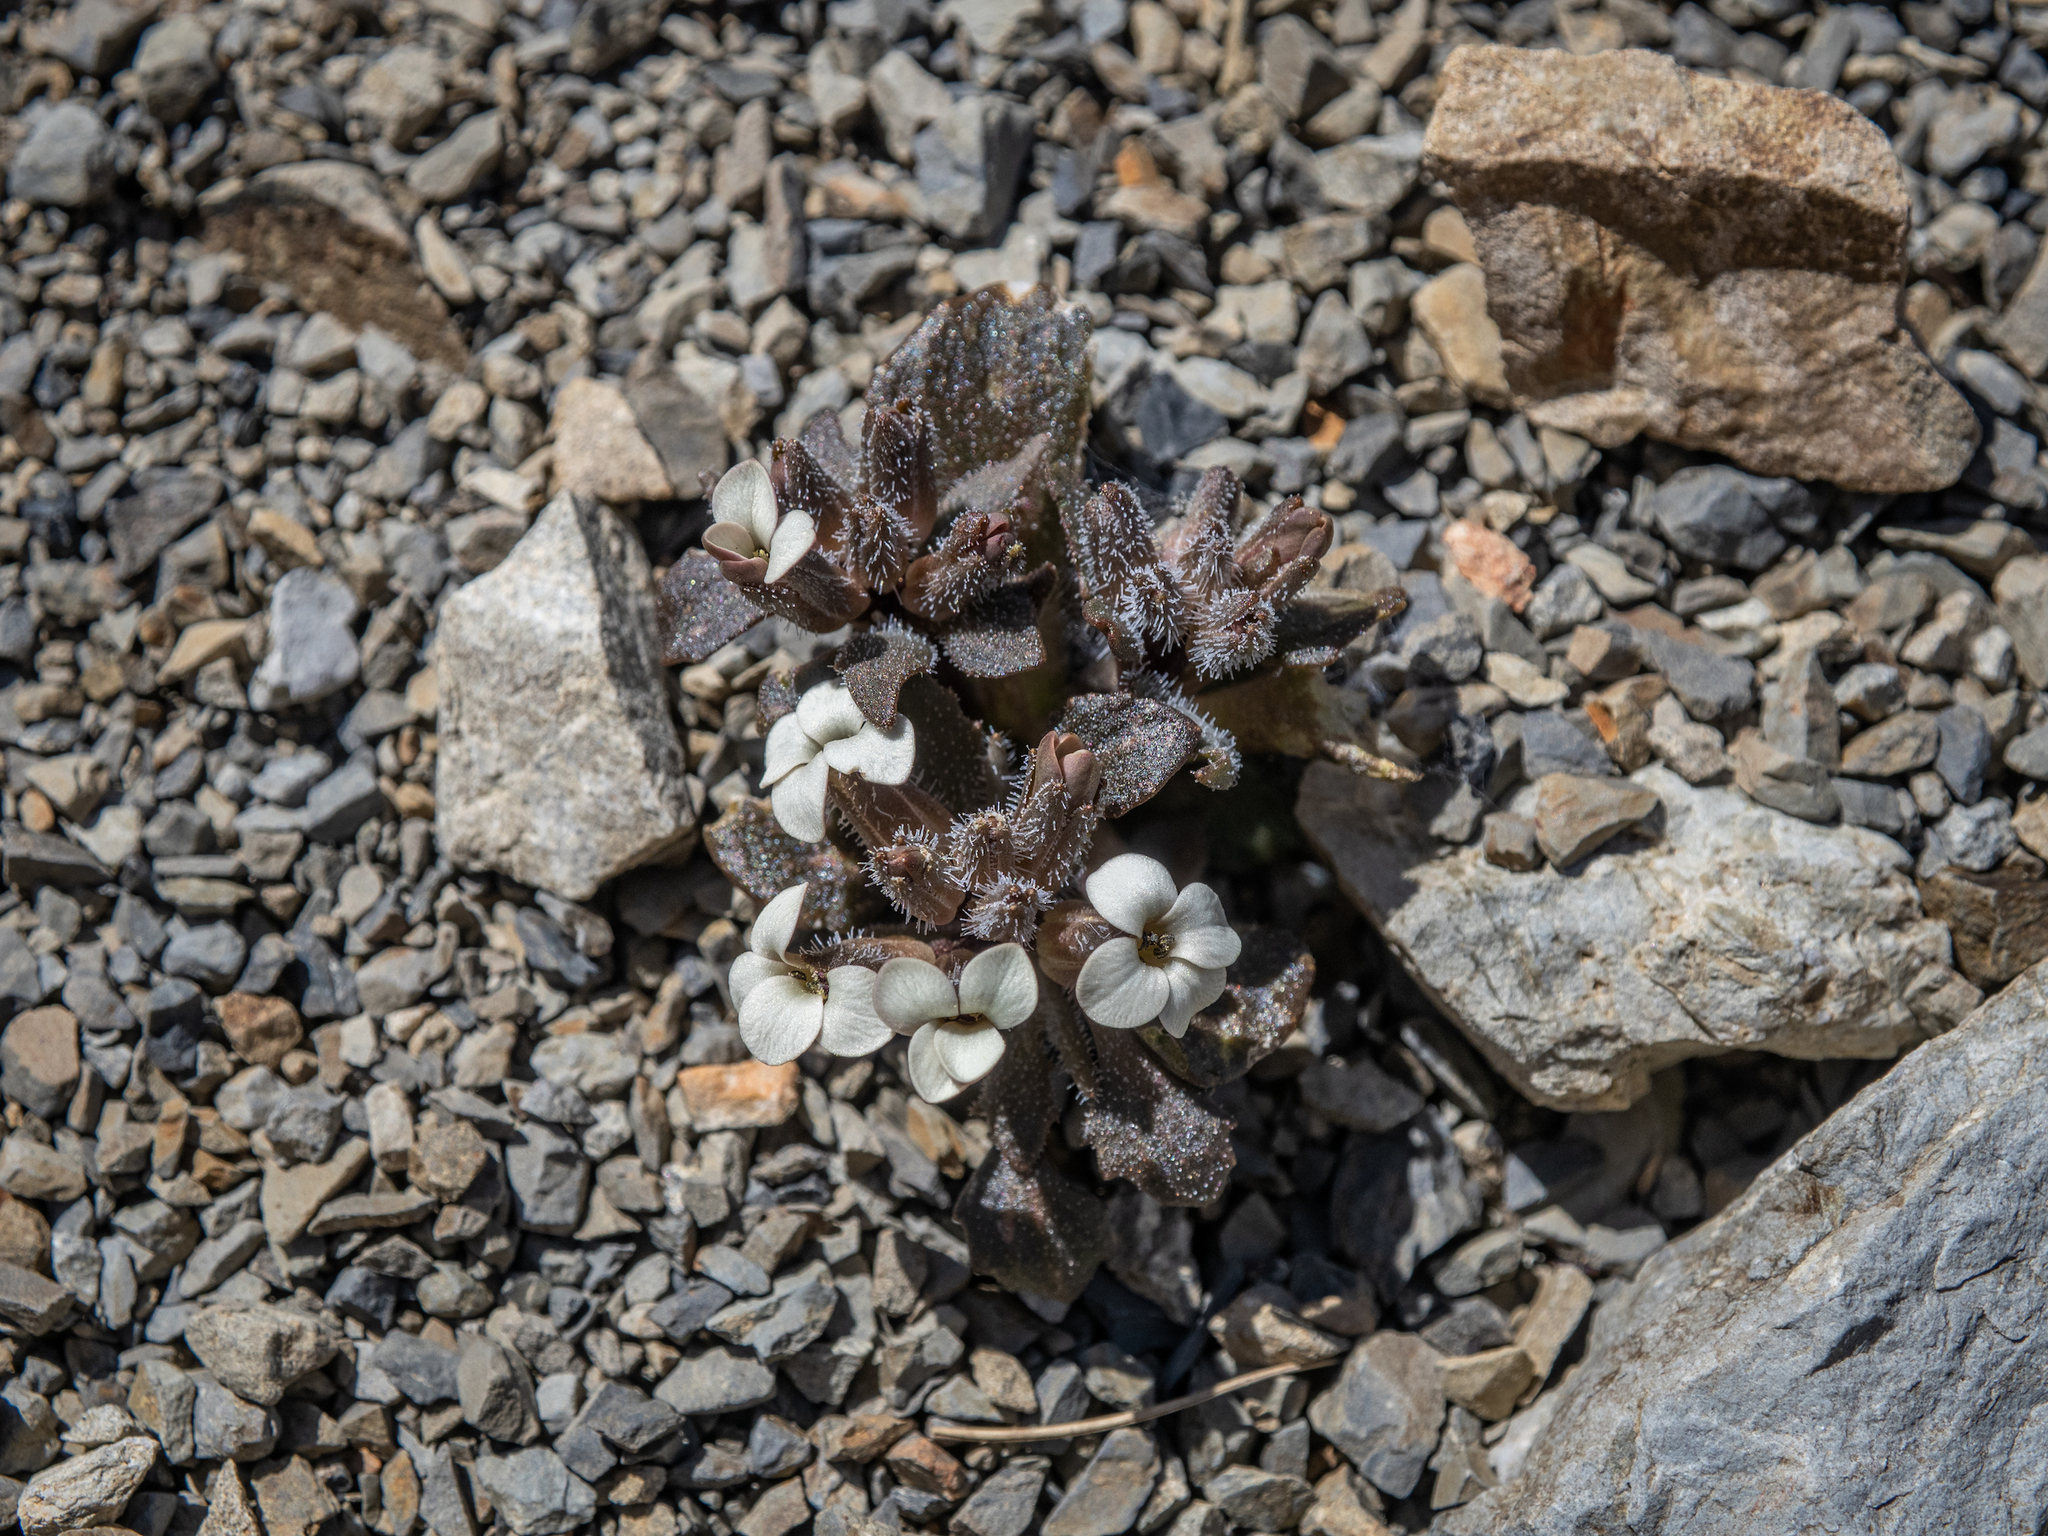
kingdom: Plantae
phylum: Tracheophyta
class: Magnoliopsida
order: Brassicales
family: Brassicaceae
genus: Notothlaspi
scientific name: Notothlaspi rosulatum
